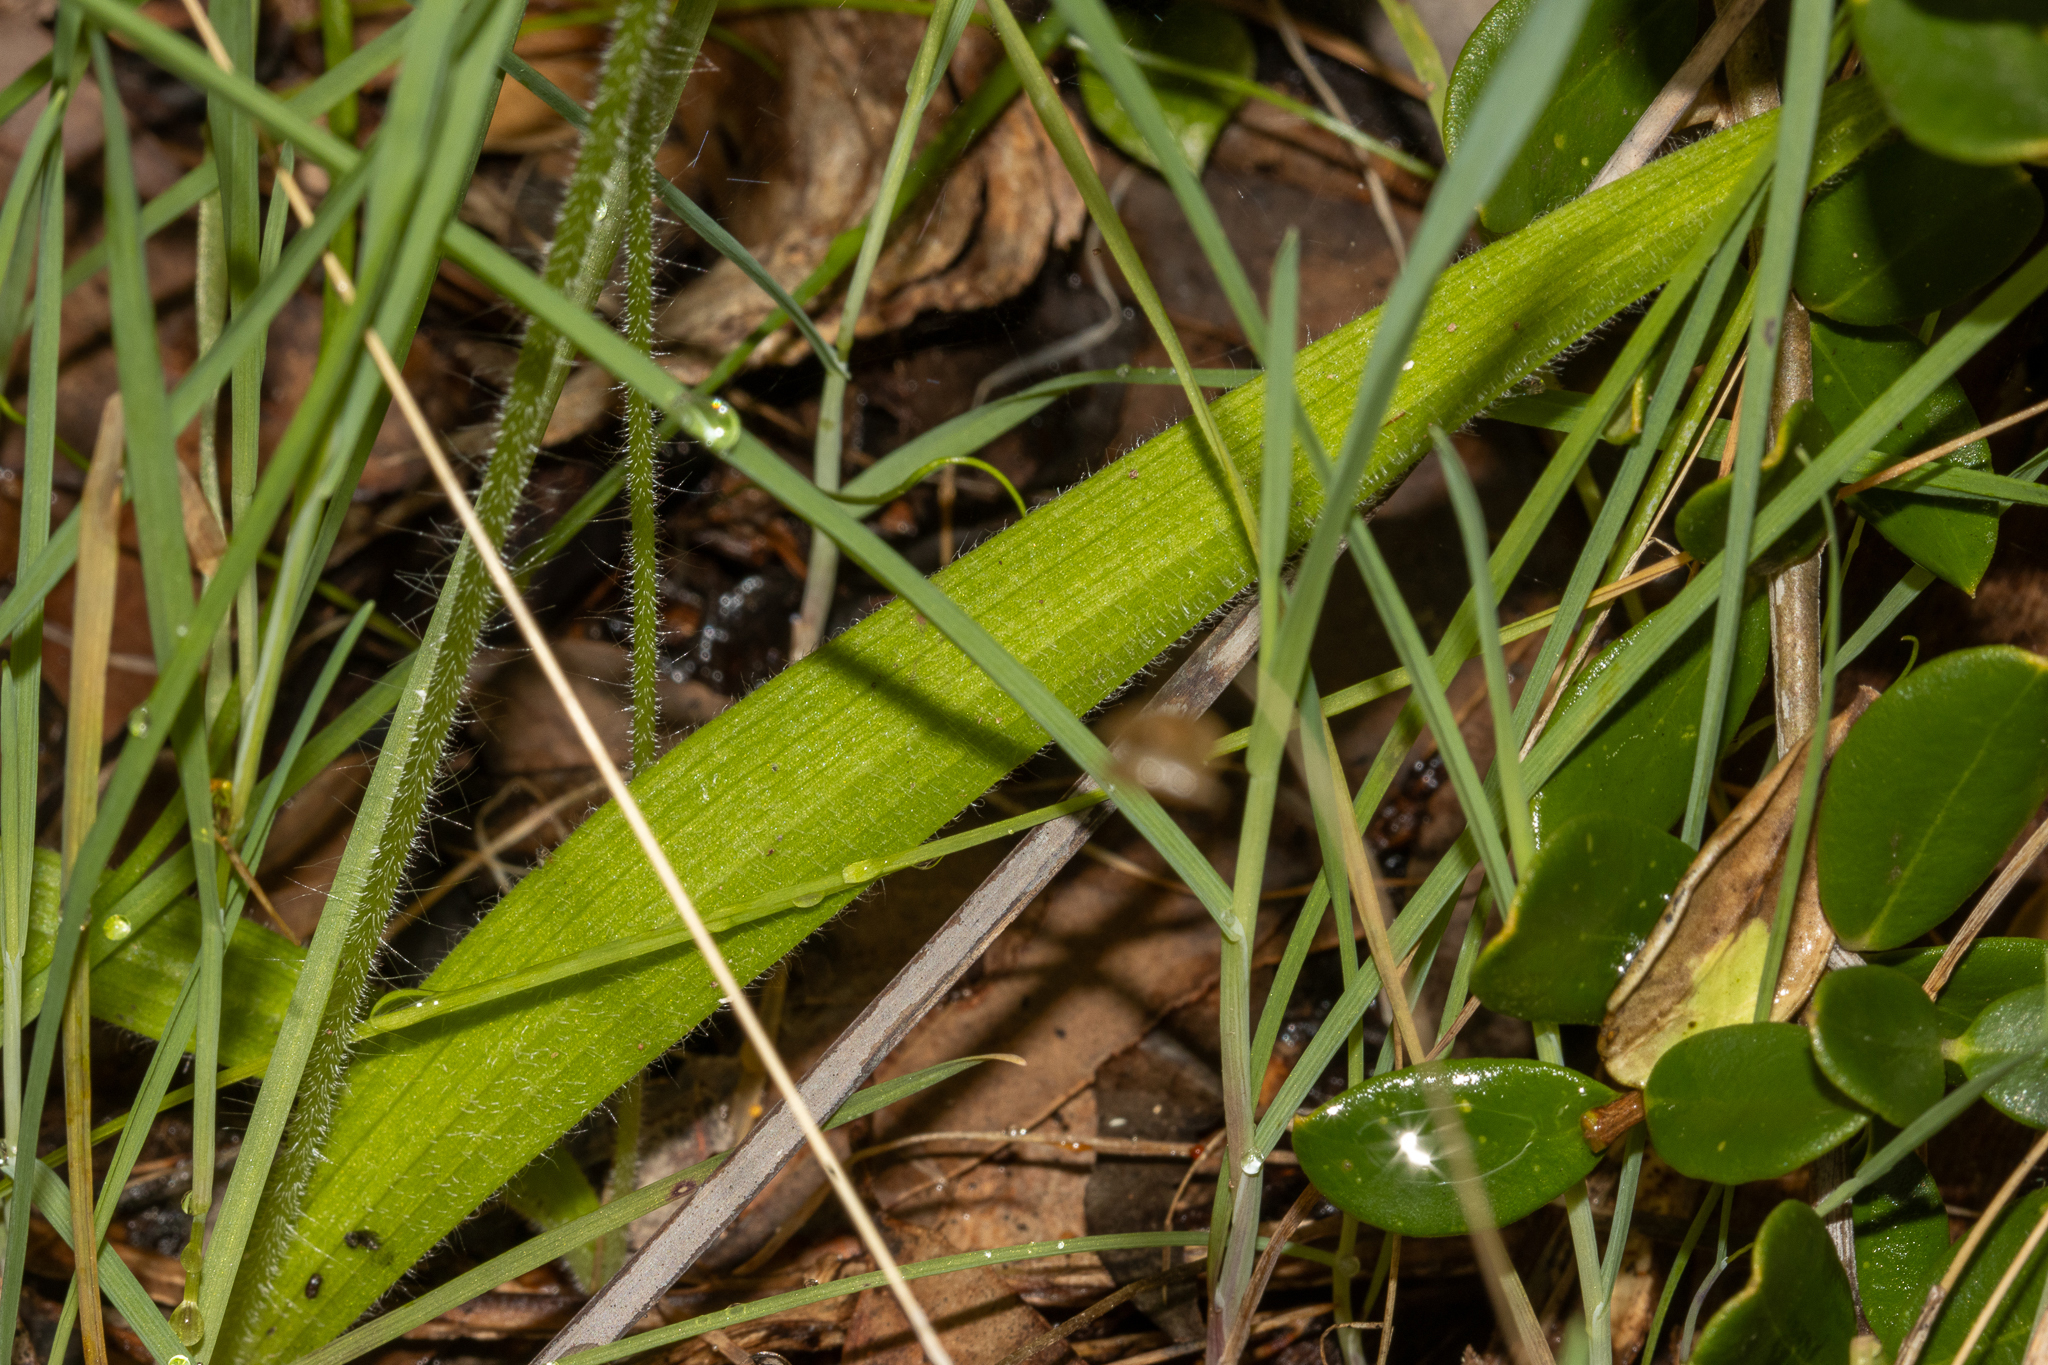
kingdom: Plantae
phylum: Tracheophyta
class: Liliopsida
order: Asparagales
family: Orchidaceae
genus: Caladenia
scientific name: Caladenia latifolia
